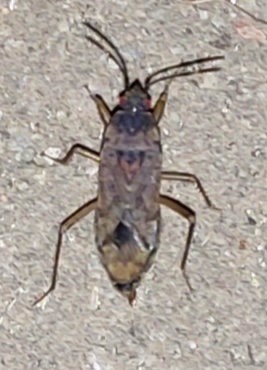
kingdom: Animalia
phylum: Arthropoda
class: Insecta
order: Hemiptera
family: Rhyparochromidae
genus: Elasmolomus
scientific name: Elasmolomus pallens
